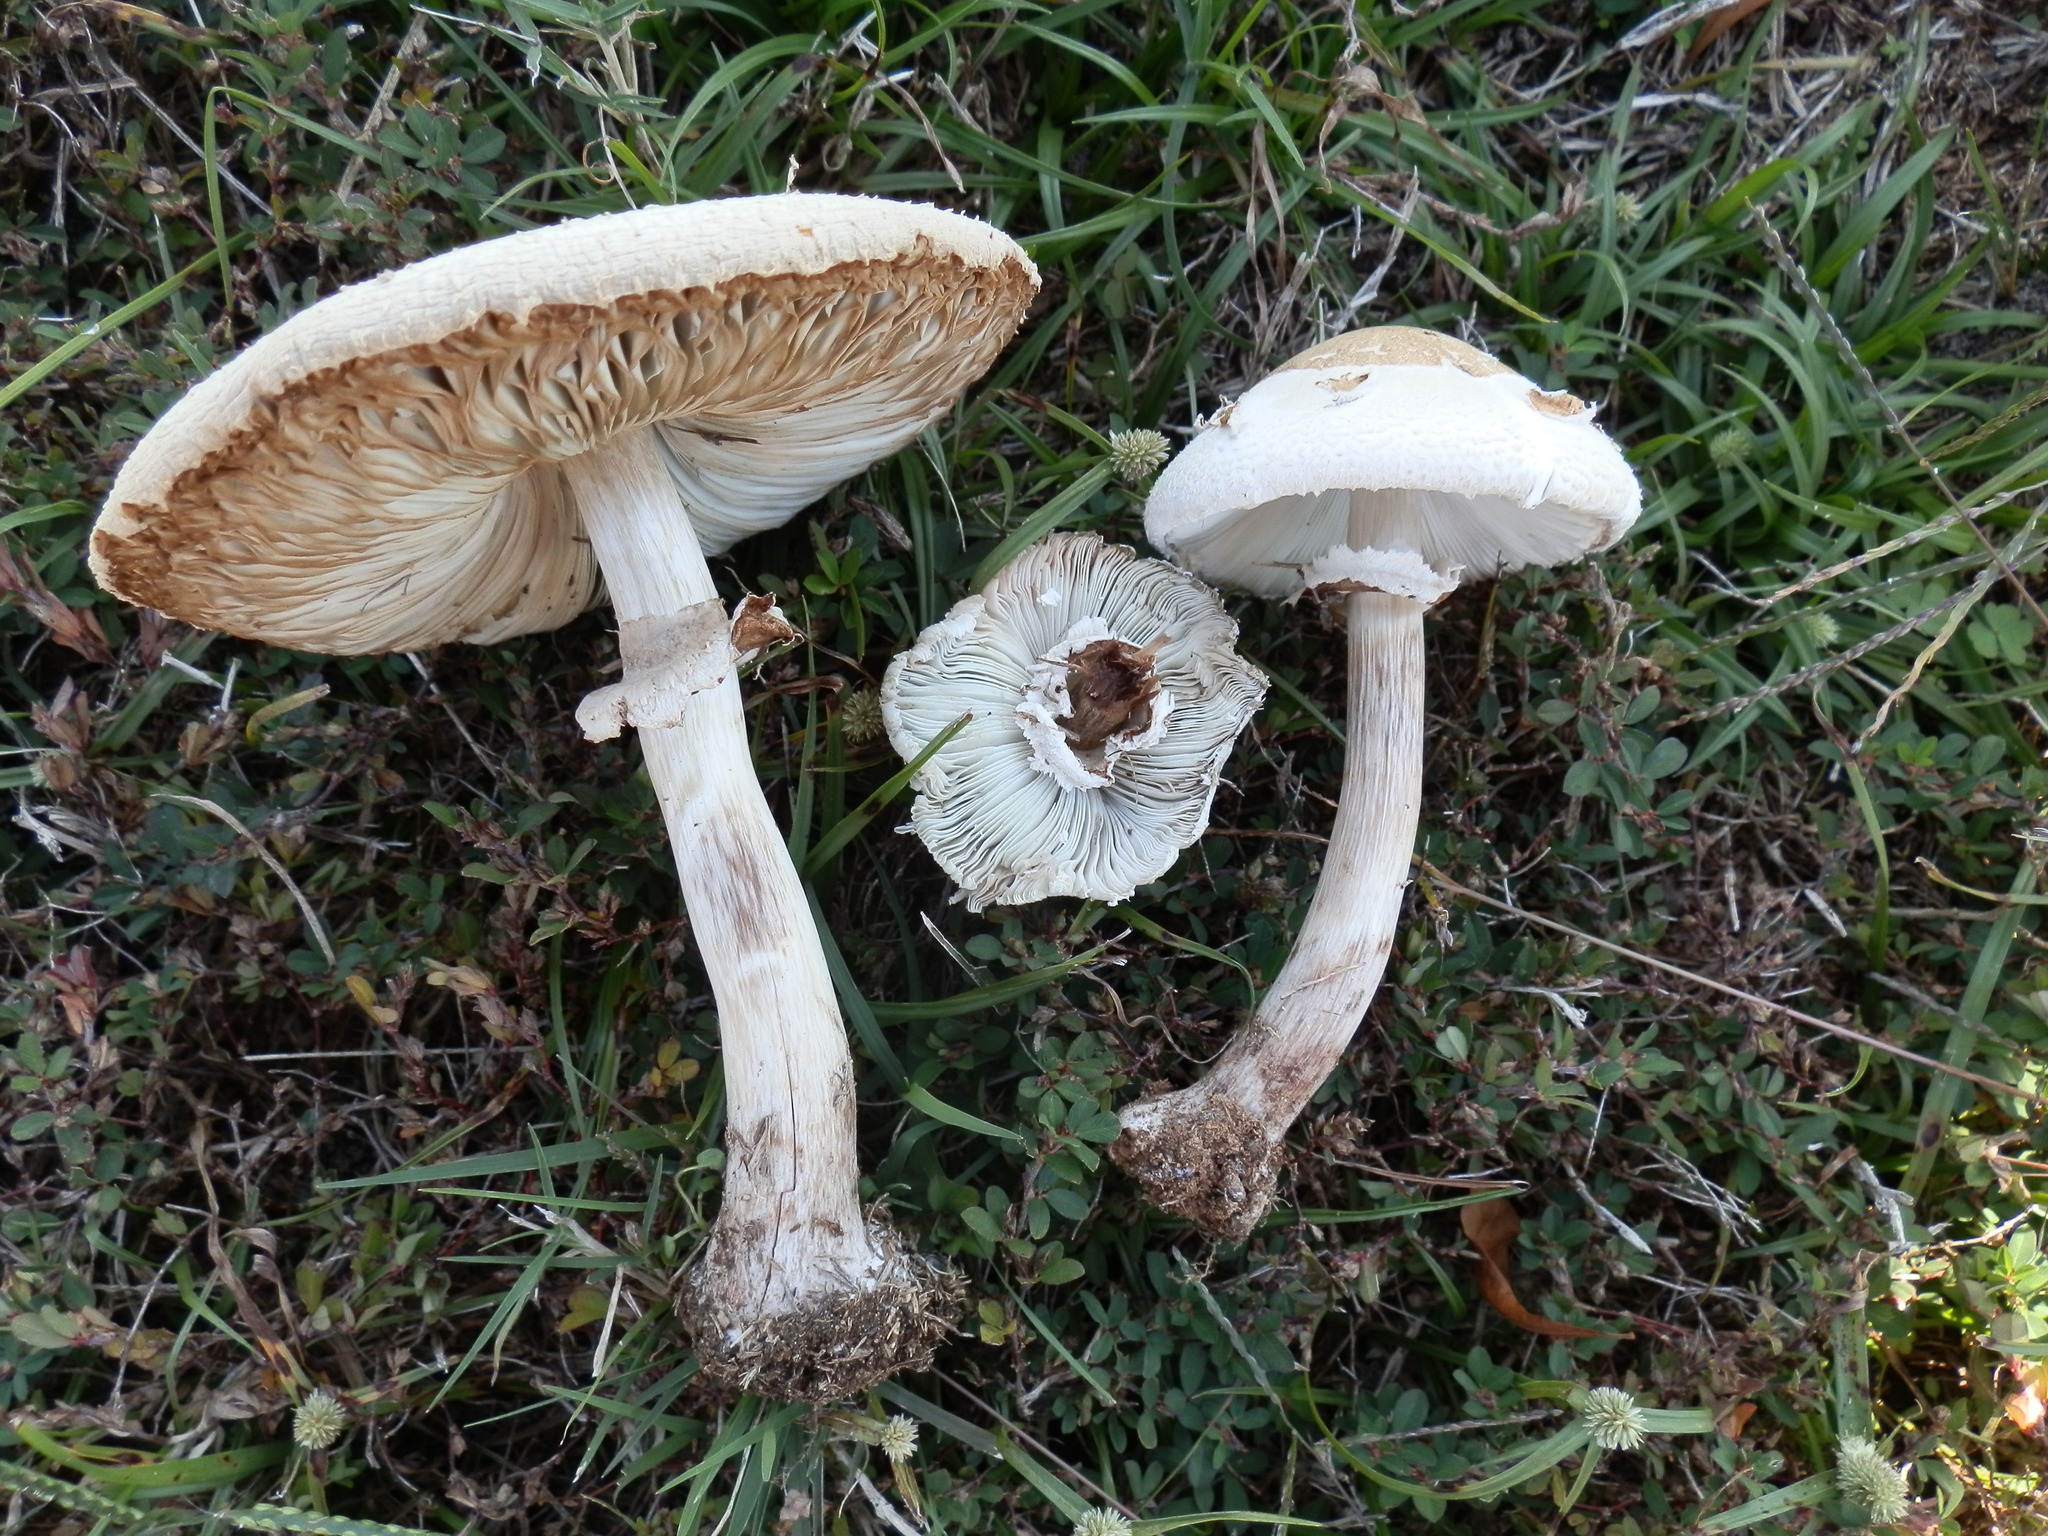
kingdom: Fungi
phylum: Basidiomycota
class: Agaricomycetes
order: Agaricales
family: Agaricaceae
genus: Chlorophyllum
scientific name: Chlorophyllum molybdites
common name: False parasol
